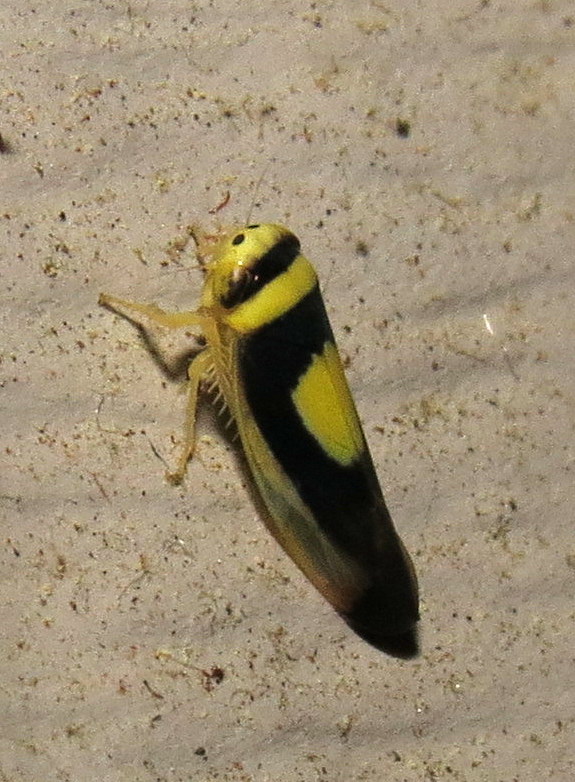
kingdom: Animalia
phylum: Arthropoda
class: Insecta
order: Hemiptera
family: Cicadellidae
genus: Colladonus
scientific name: Colladonus clitellarius
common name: The saddleback leafhopper
